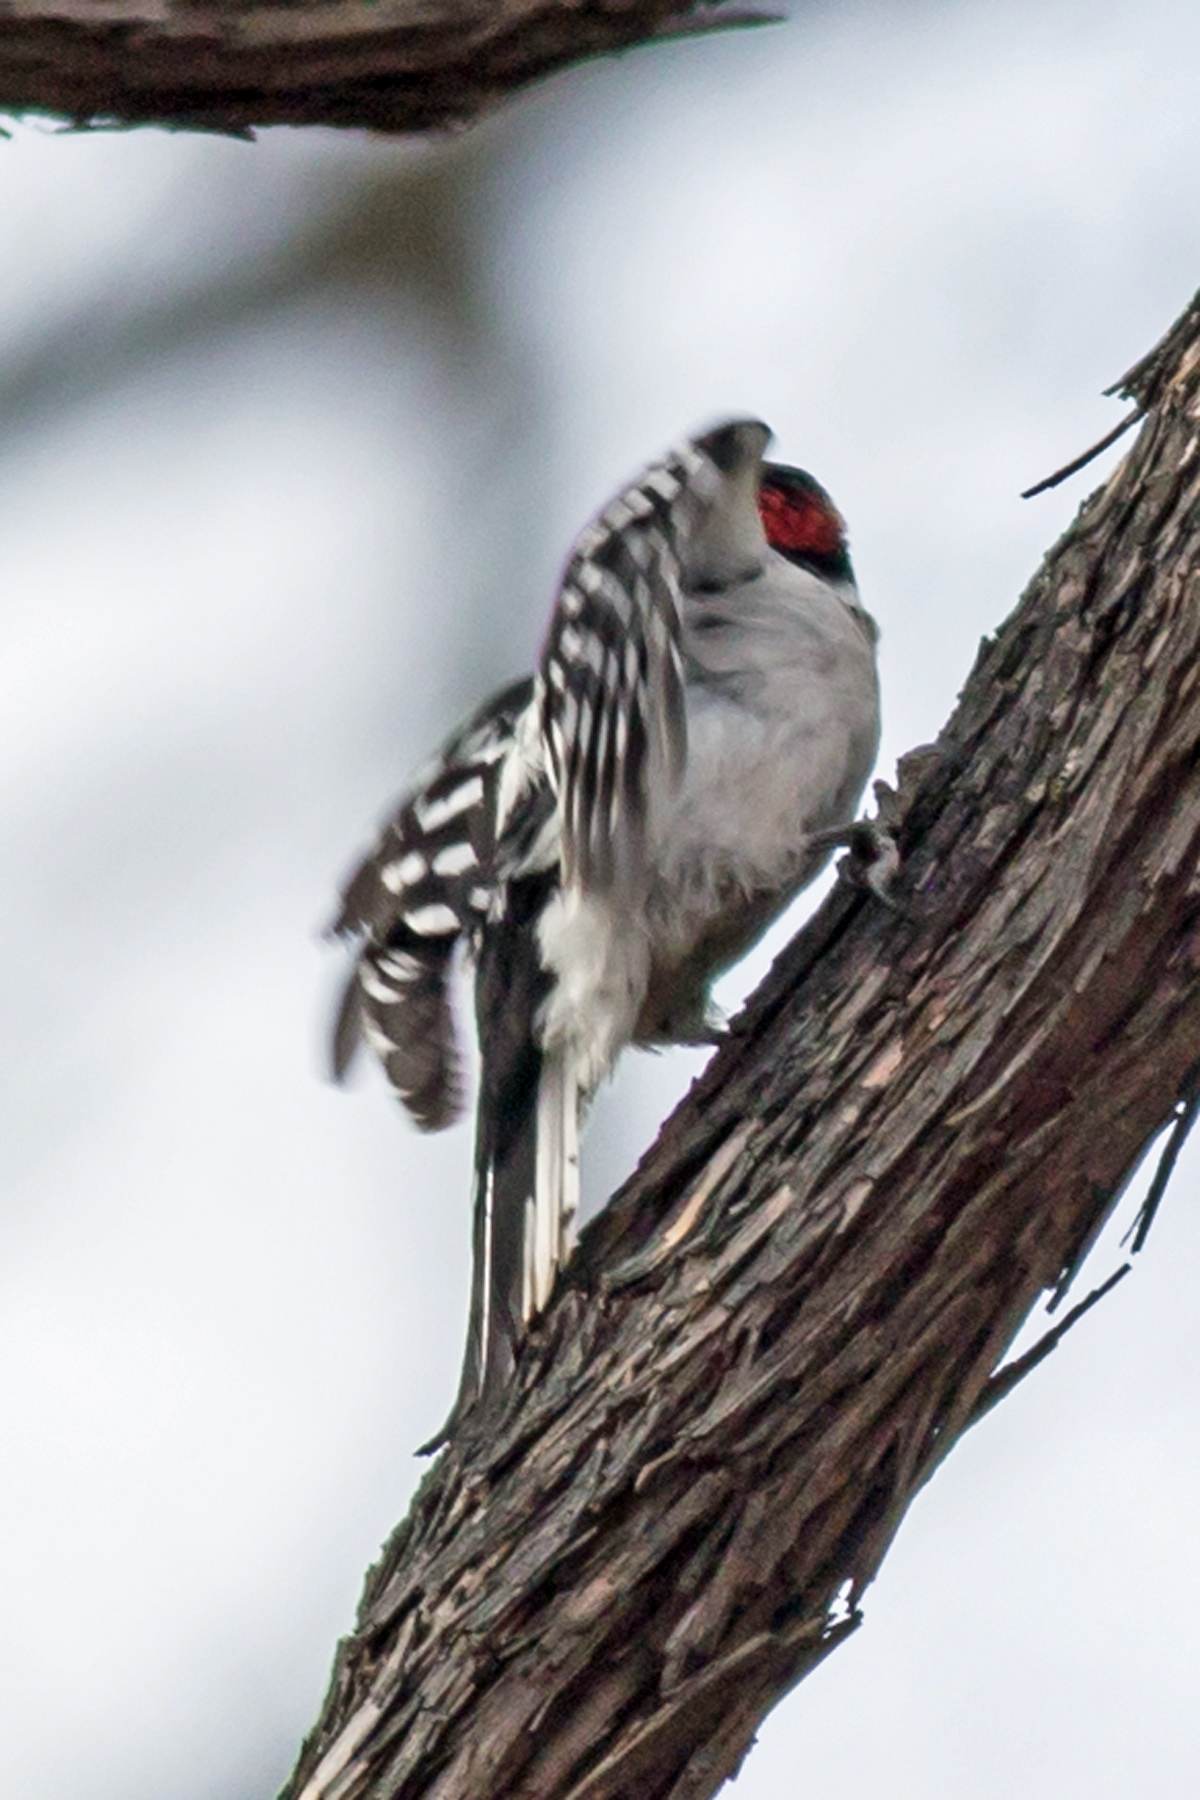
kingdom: Animalia
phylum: Chordata
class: Aves
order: Piciformes
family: Picidae
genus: Dryobates
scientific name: Dryobates pubescens
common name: Downy woodpecker
